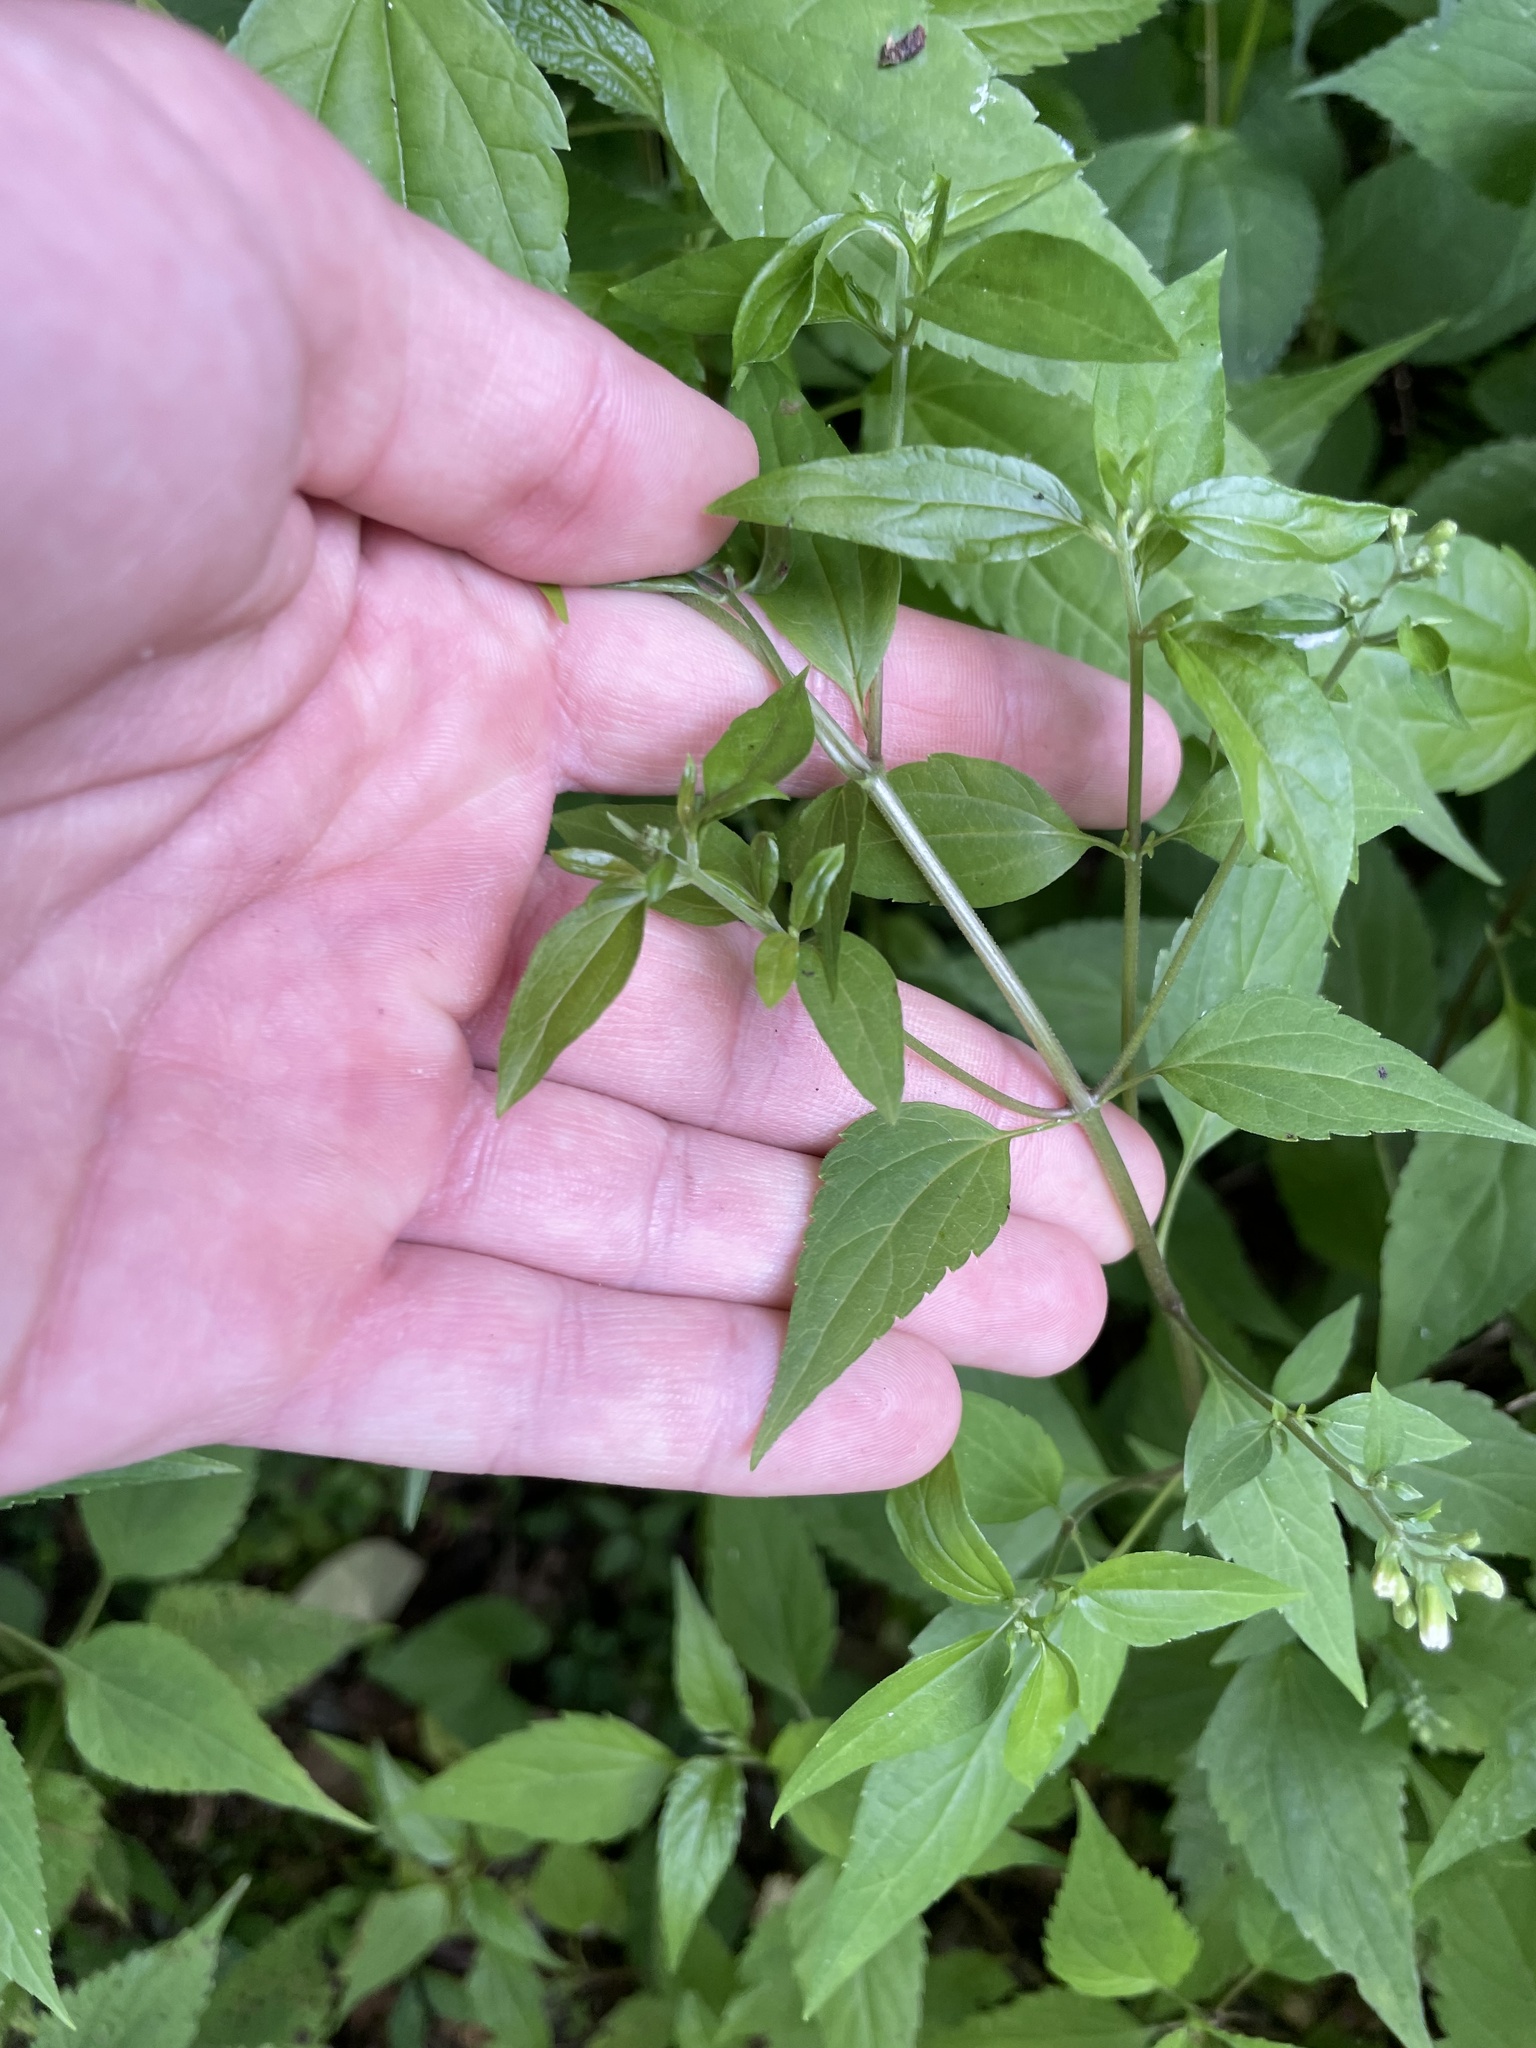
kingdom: Plantae
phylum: Tracheophyta
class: Magnoliopsida
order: Asterales
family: Asteraceae
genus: Ageratina
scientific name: Ageratina altissima
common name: White snakeroot
